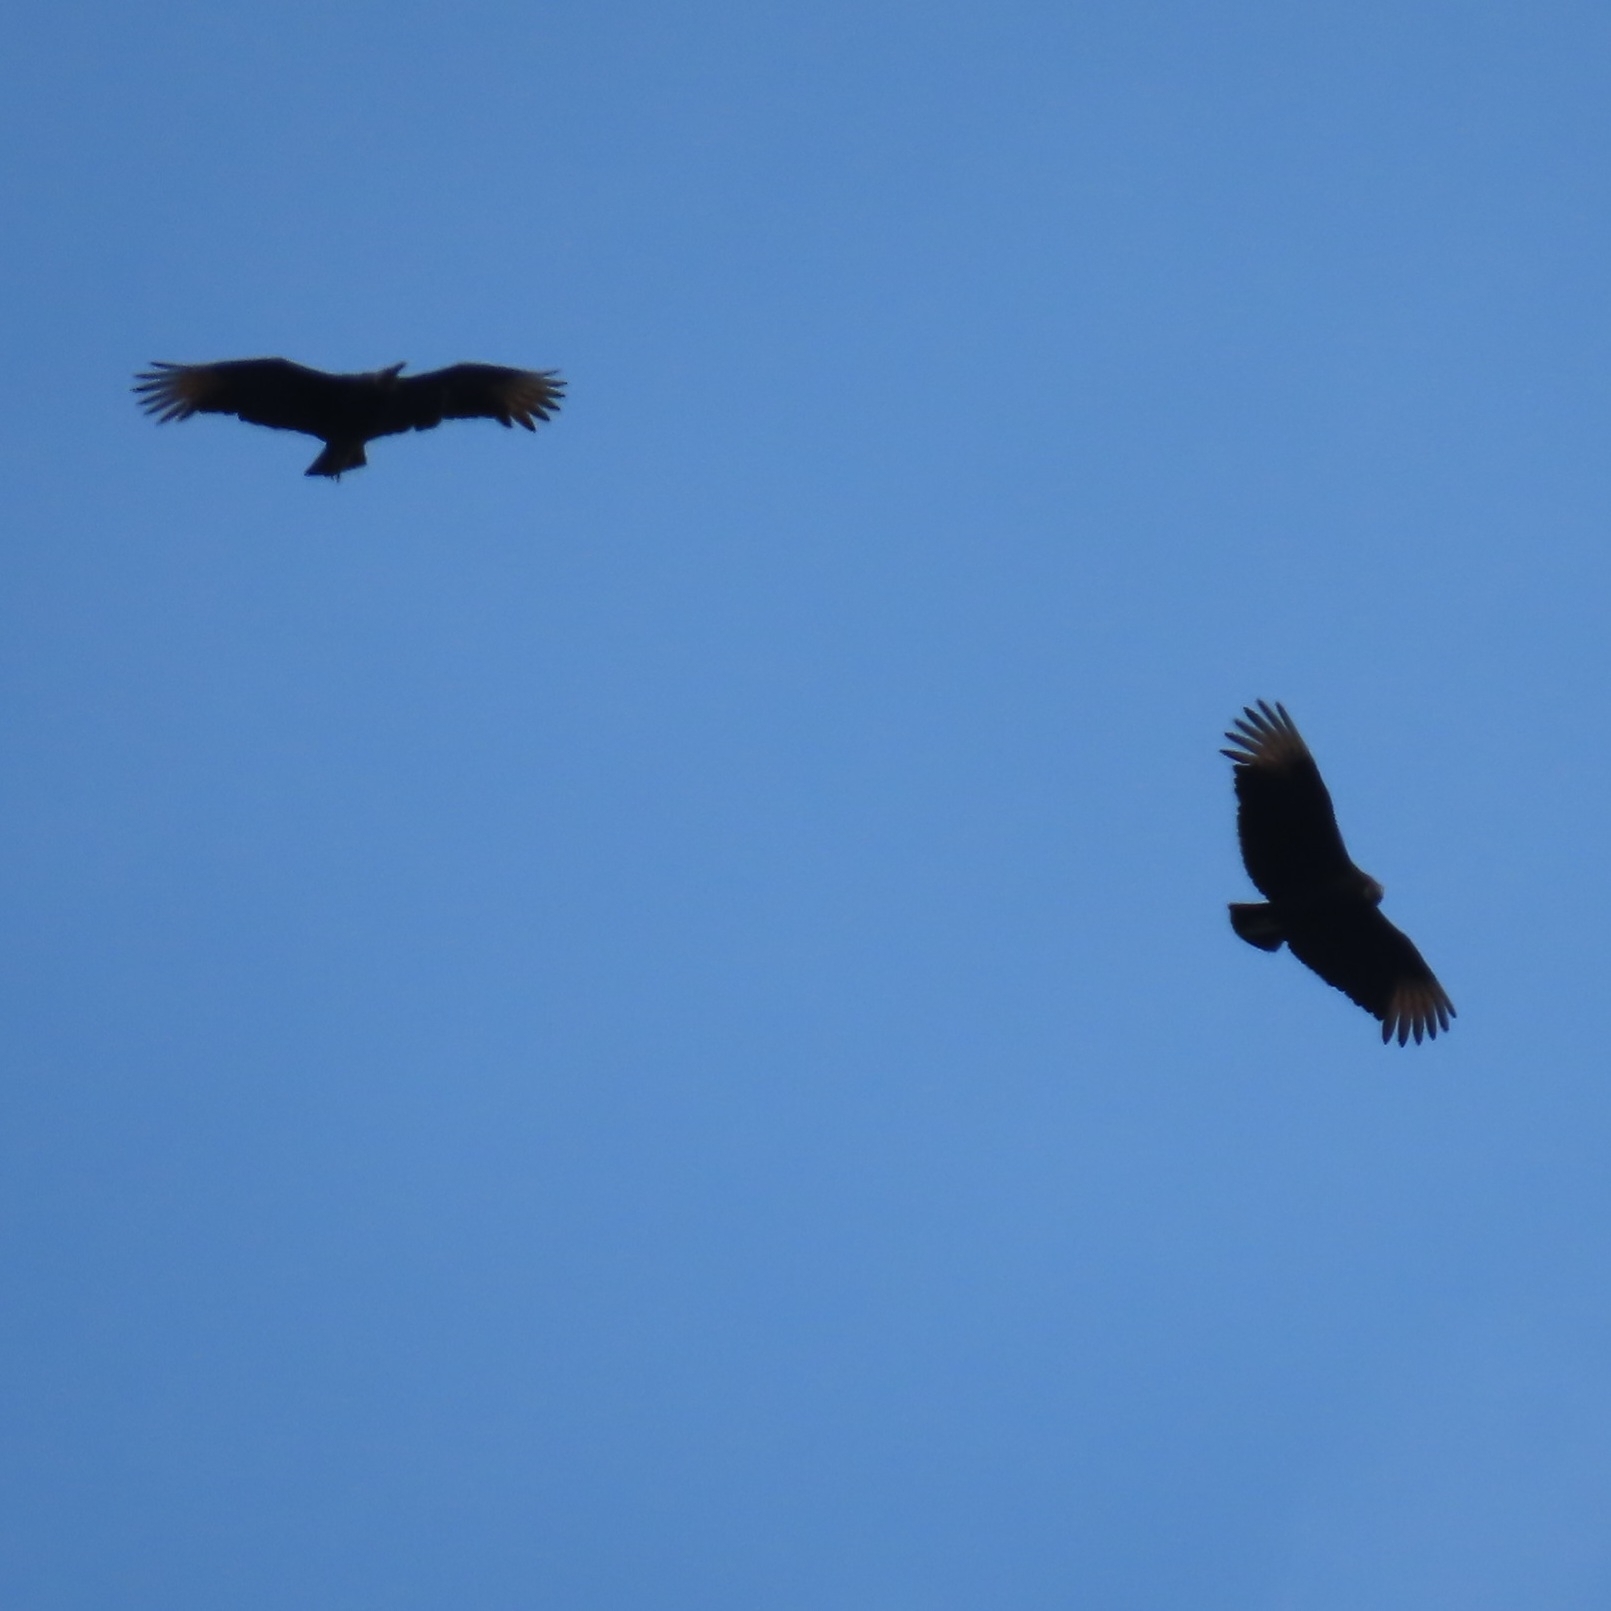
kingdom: Animalia
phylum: Chordata
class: Aves
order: Accipitriformes
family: Cathartidae
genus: Coragyps
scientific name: Coragyps atratus
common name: Black vulture
